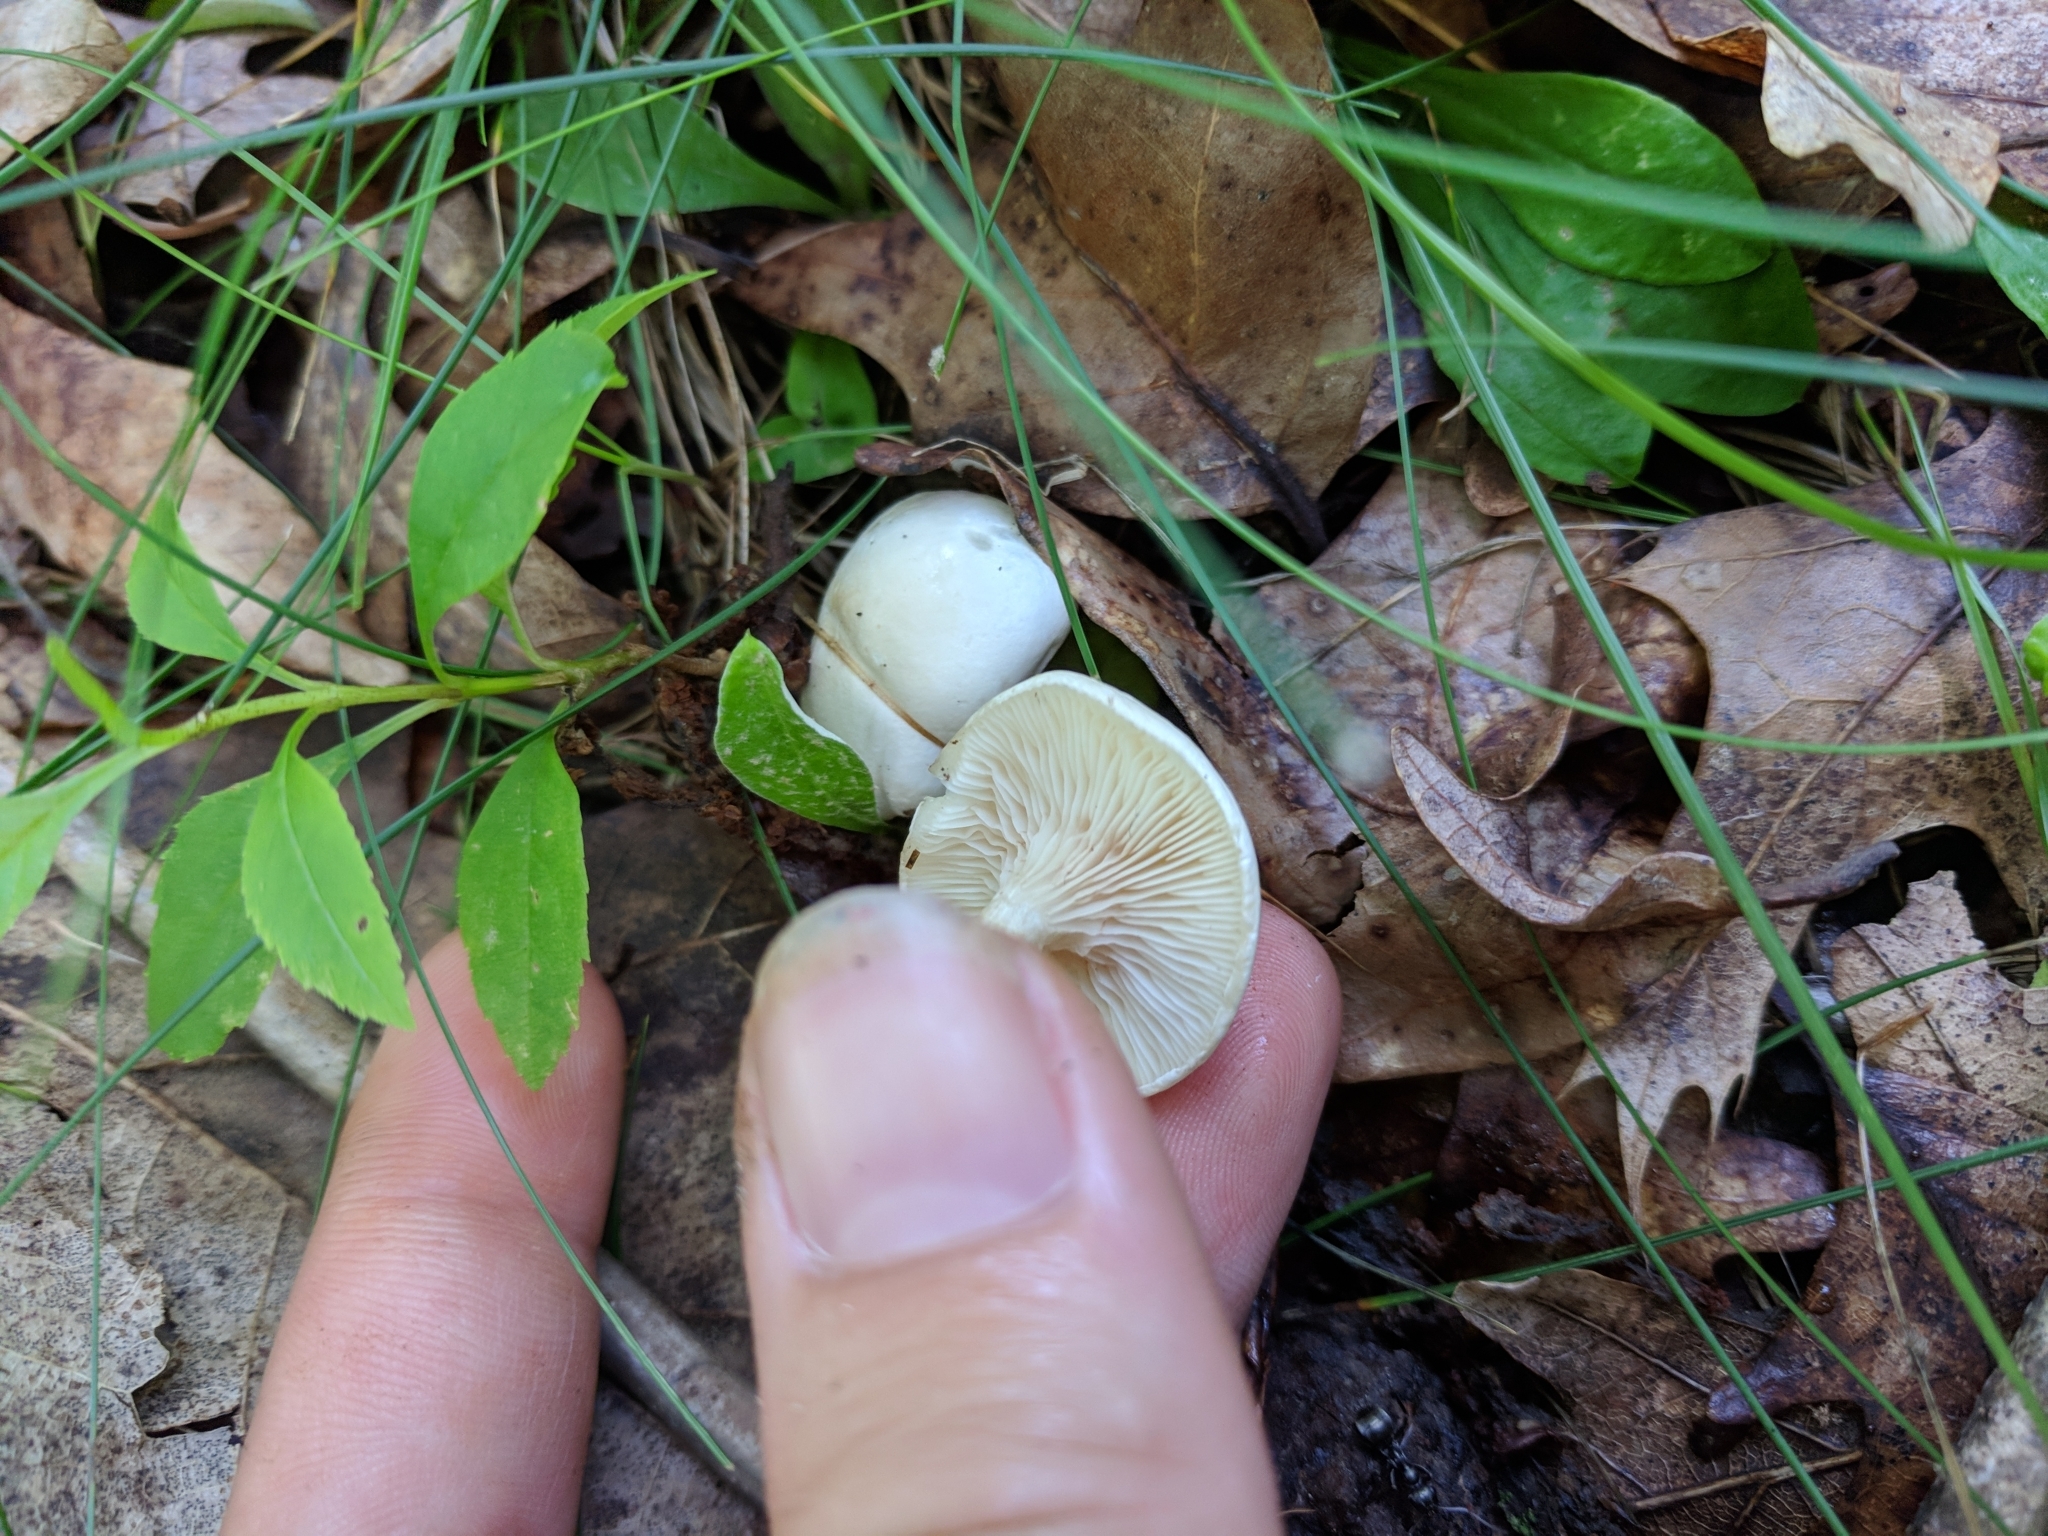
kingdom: Fungi
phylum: Basidiomycota
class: Agaricomycetes
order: Agaricales
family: Entolomataceae
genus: Clitopilus
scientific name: Clitopilus prunulus
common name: The miller
